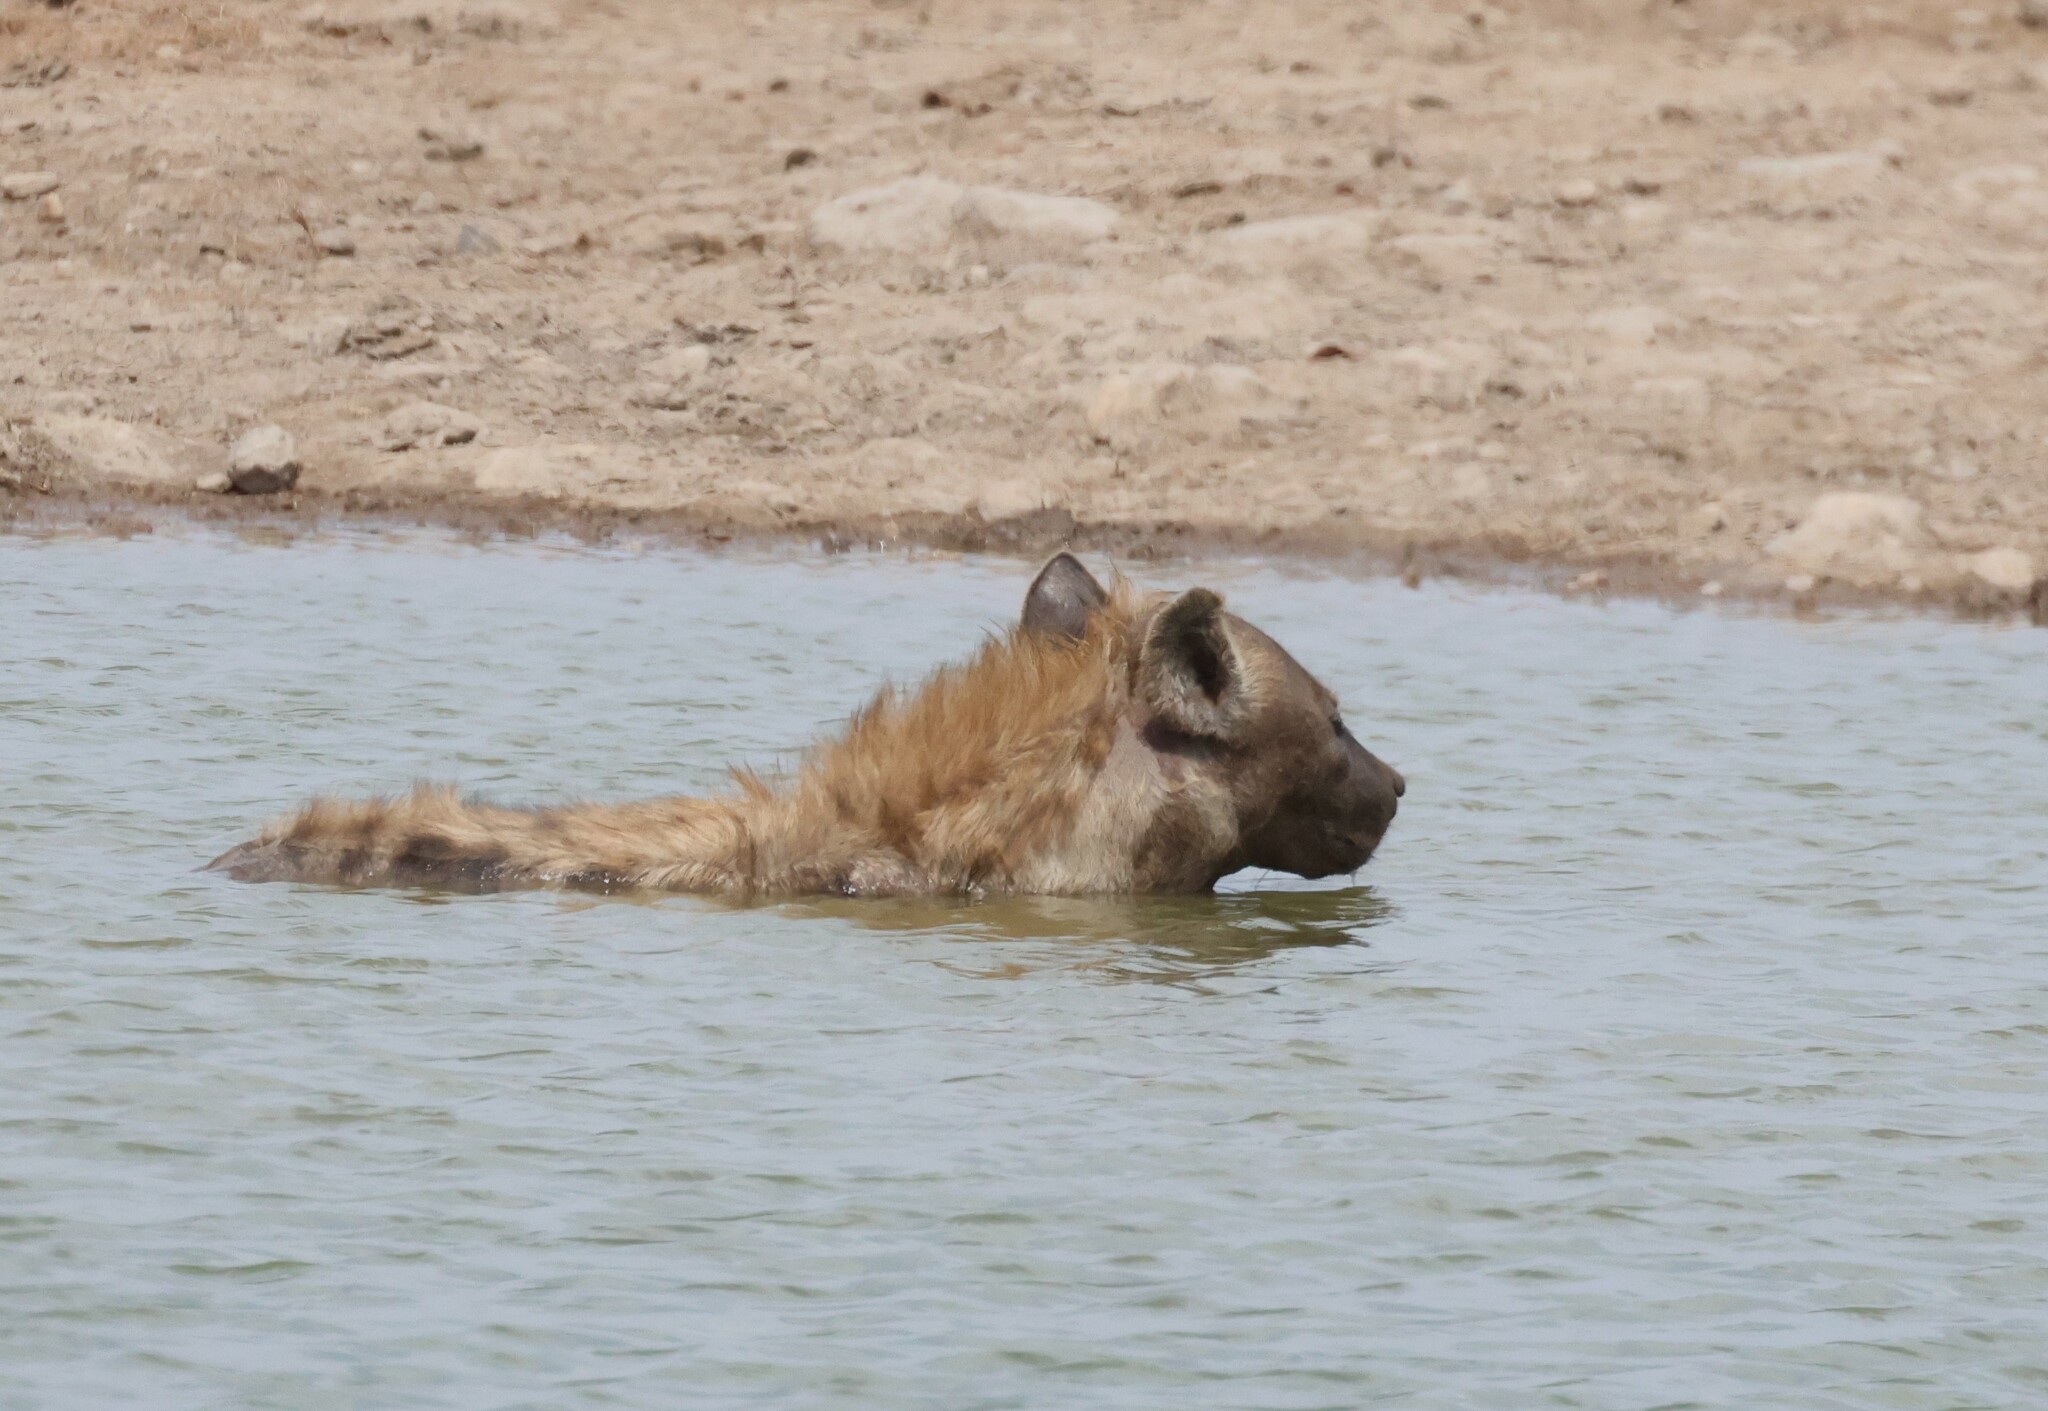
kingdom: Animalia
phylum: Chordata
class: Mammalia
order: Carnivora
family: Hyaenidae
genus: Crocuta
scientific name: Crocuta crocuta
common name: Spotted hyaena
